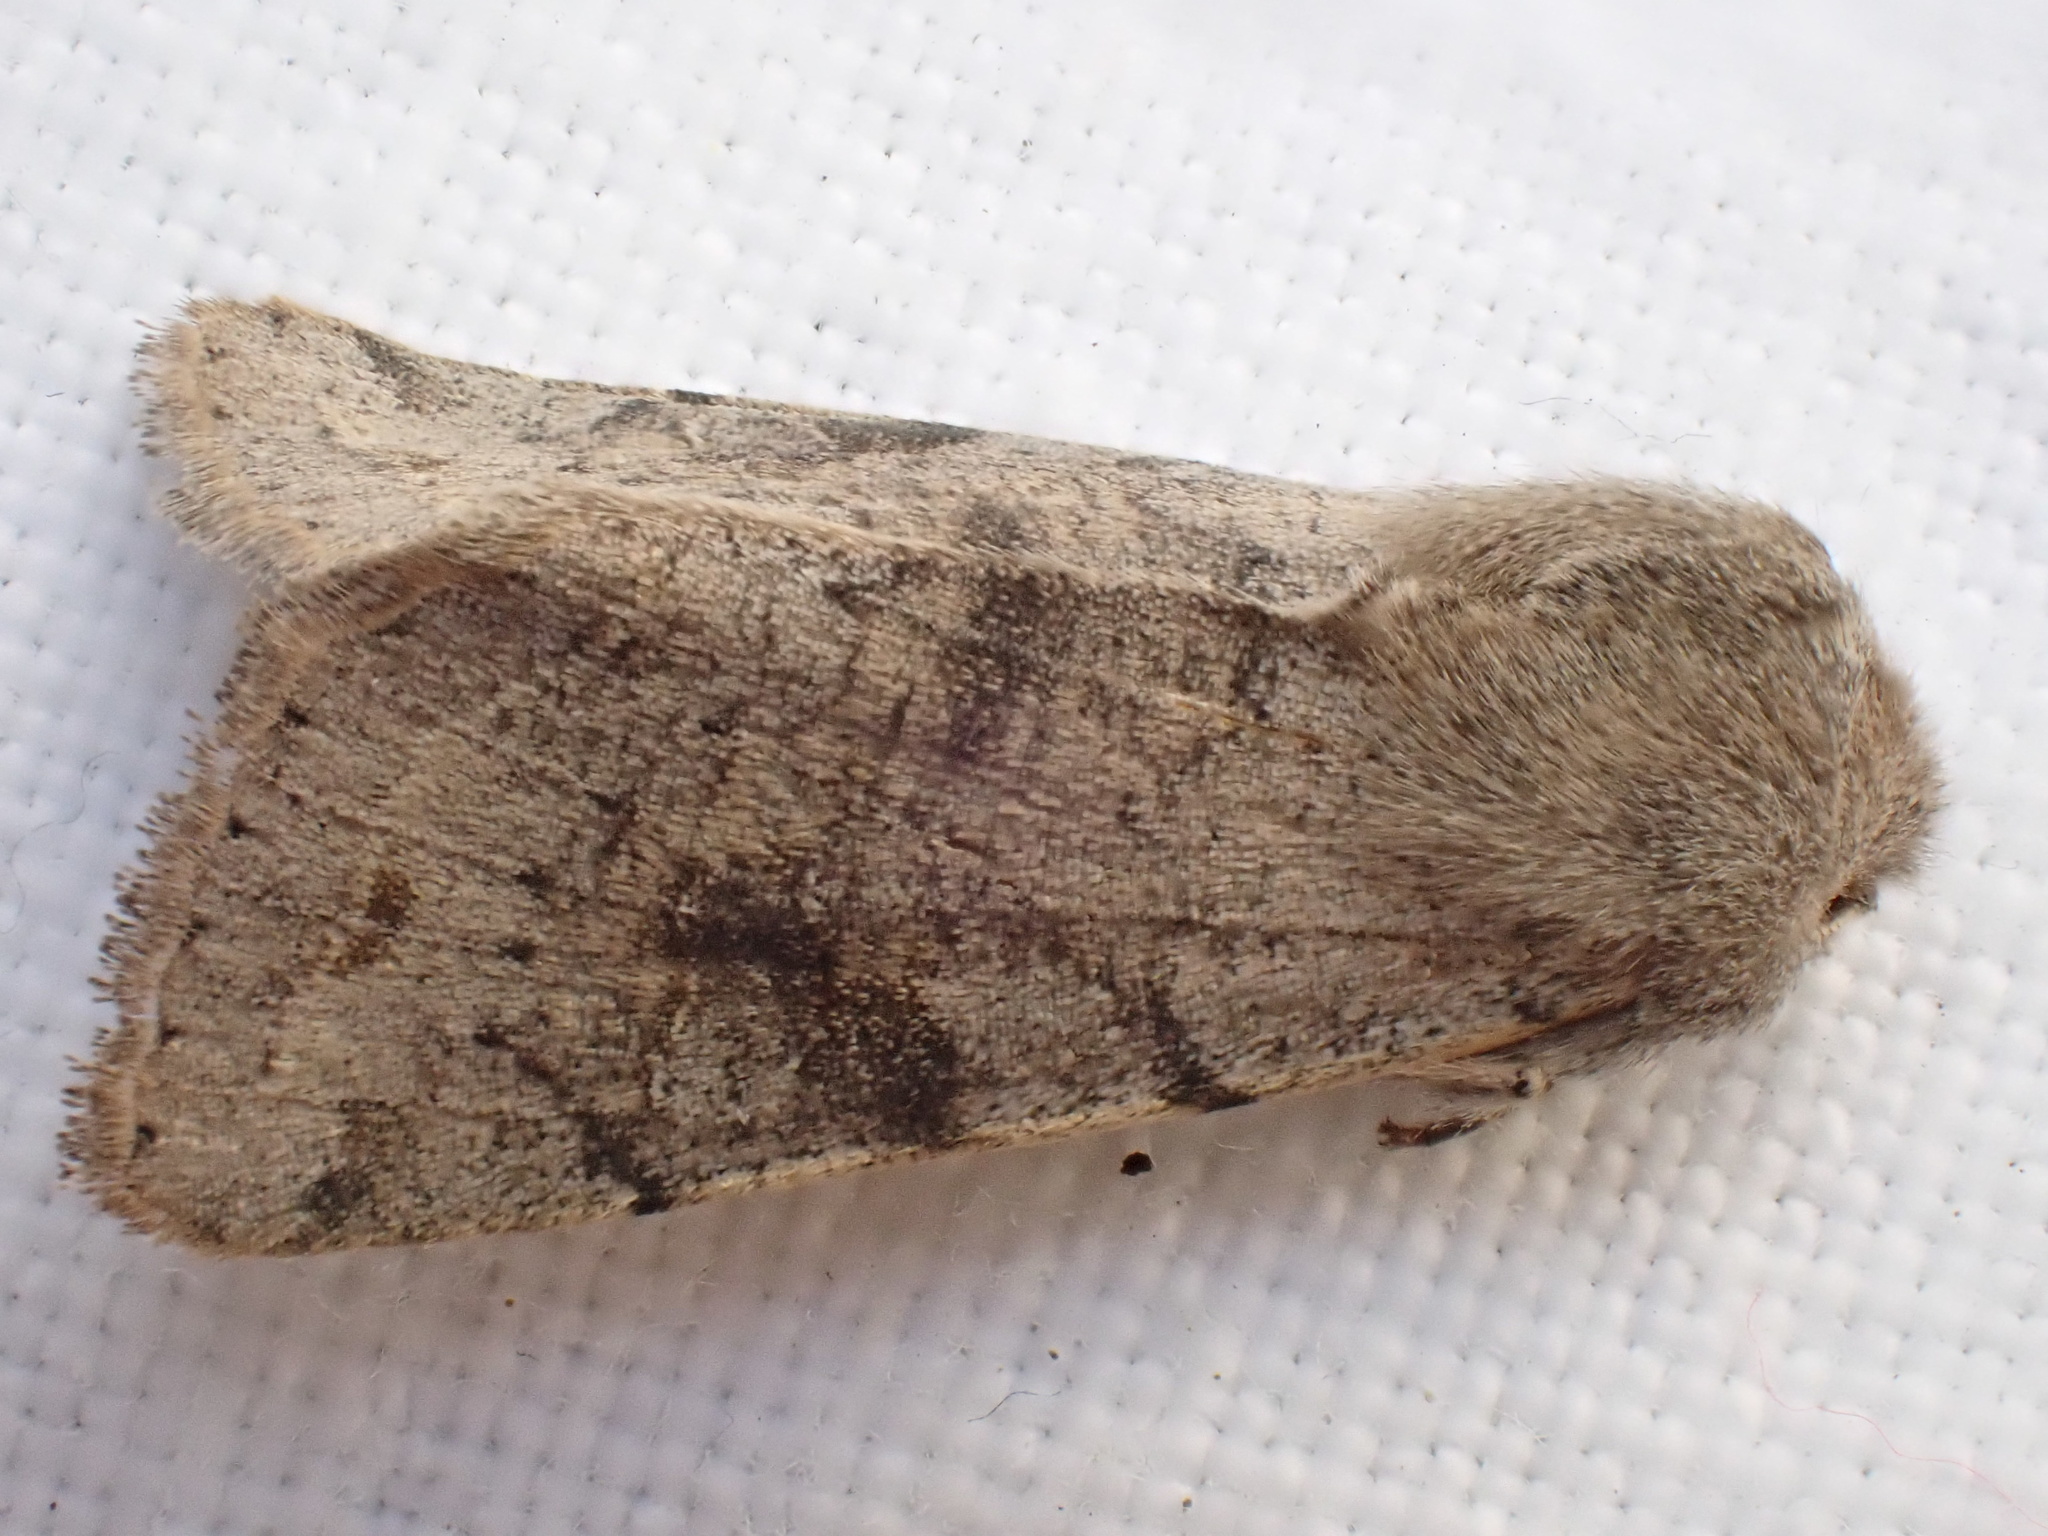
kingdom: Animalia
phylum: Arthropoda
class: Insecta
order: Lepidoptera
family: Noctuidae
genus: Orthosia
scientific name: Orthosia incerta
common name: Clouded drab
